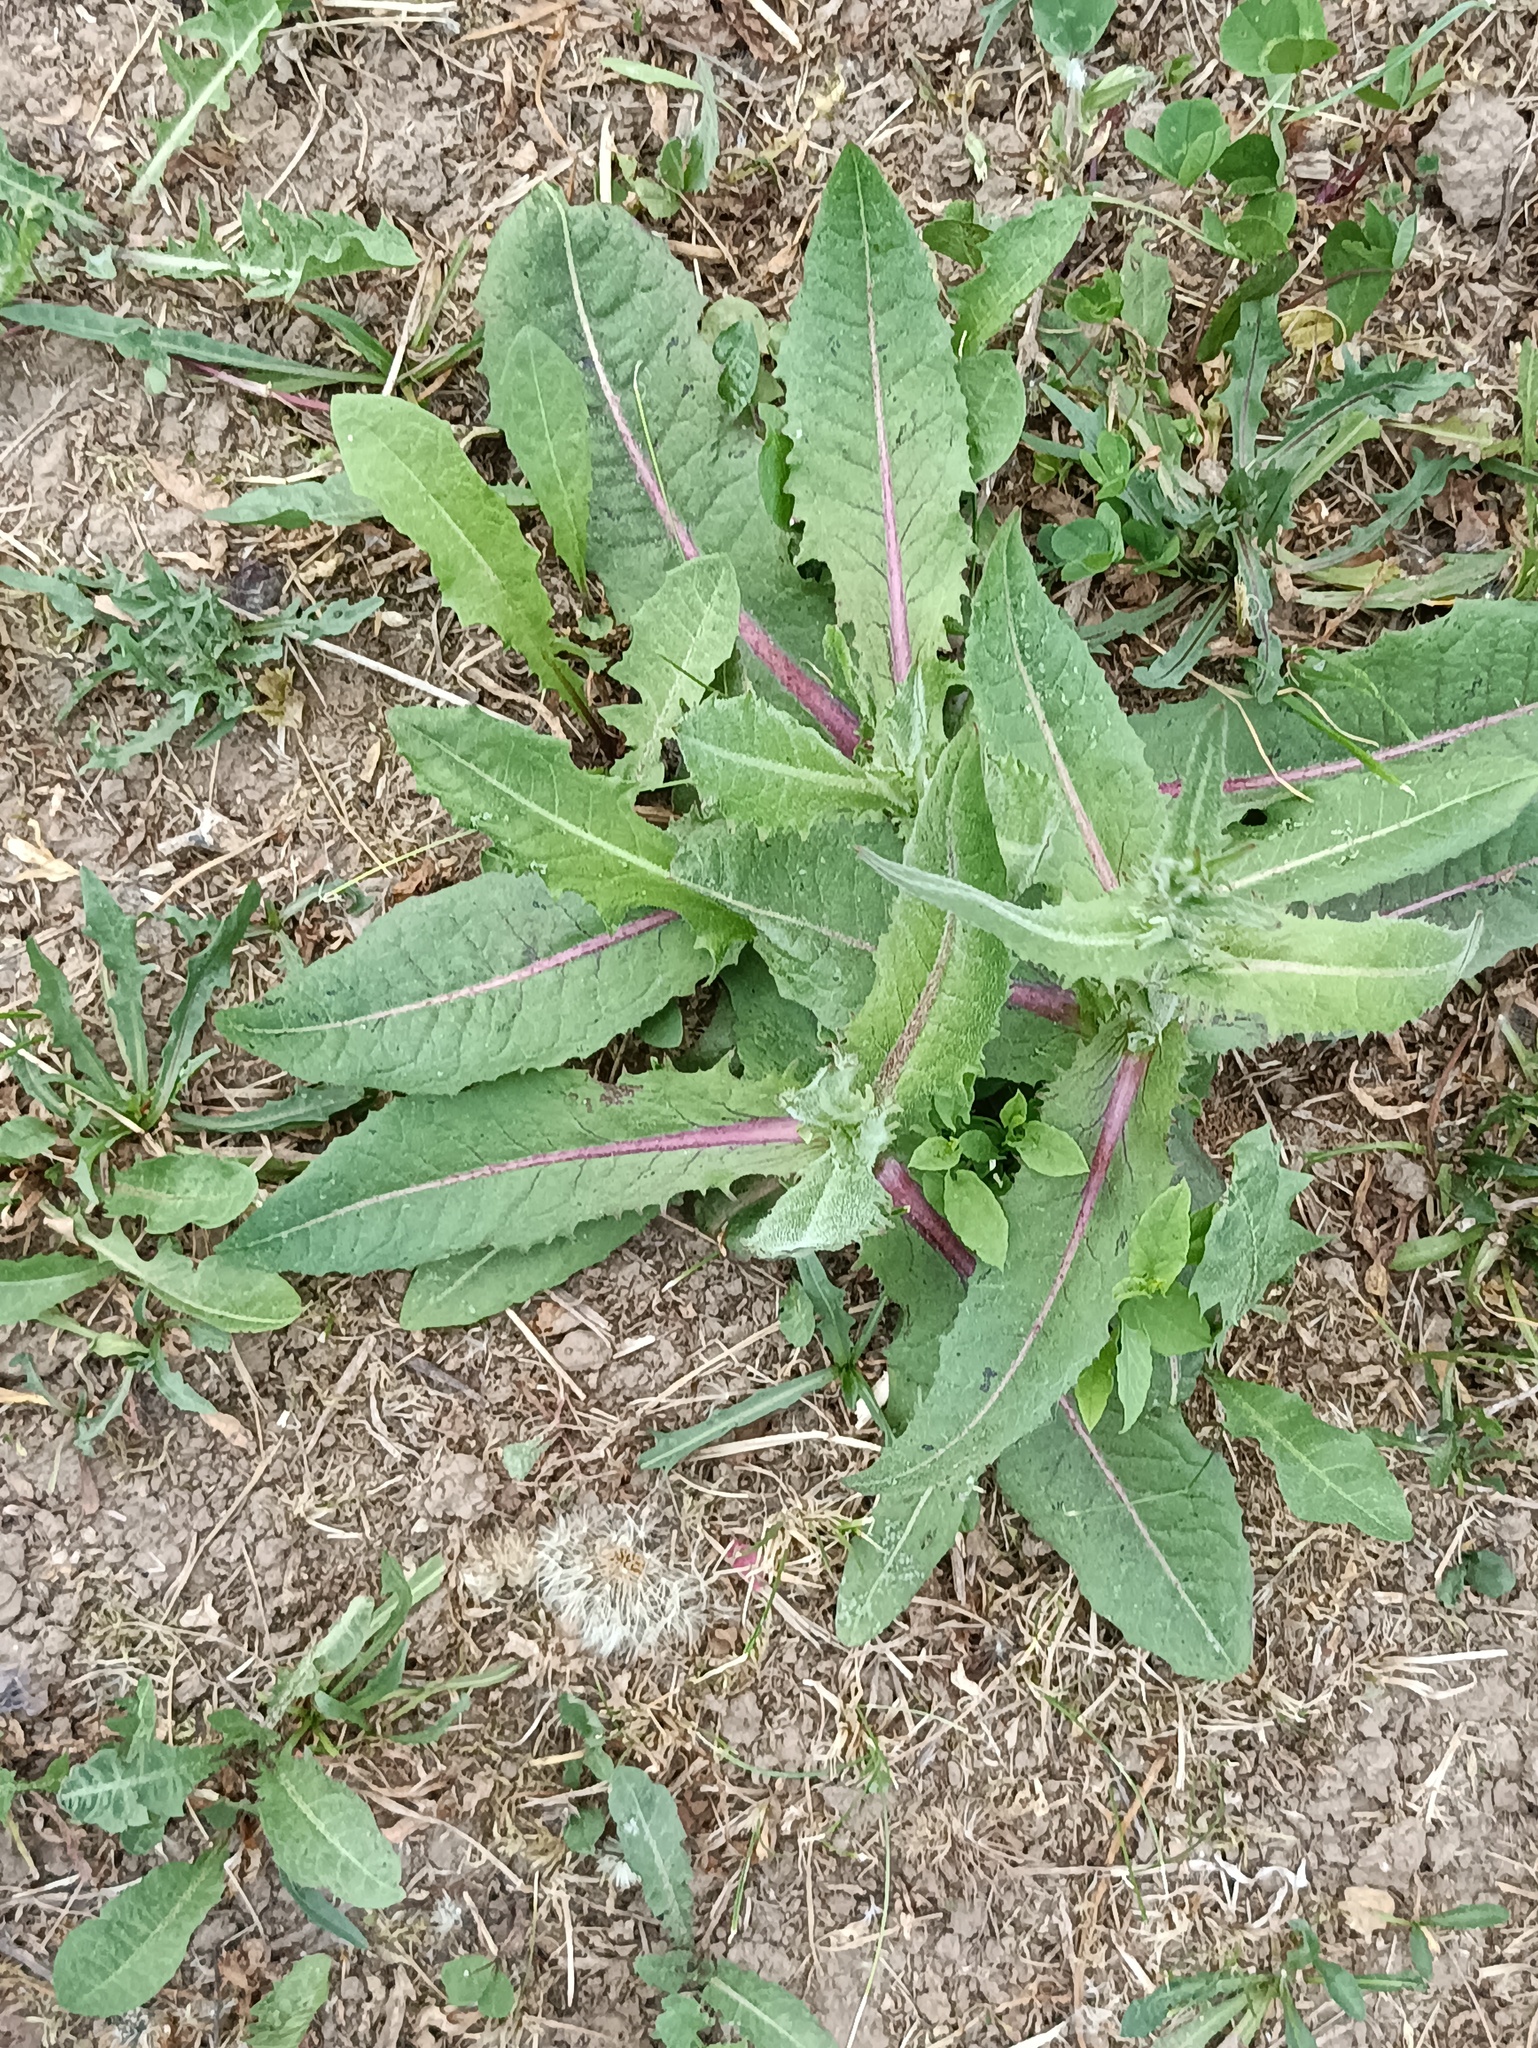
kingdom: Plantae
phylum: Tracheophyta
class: Magnoliopsida
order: Asterales
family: Asteraceae
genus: Cichorium
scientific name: Cichorium intybus
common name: Chicory
